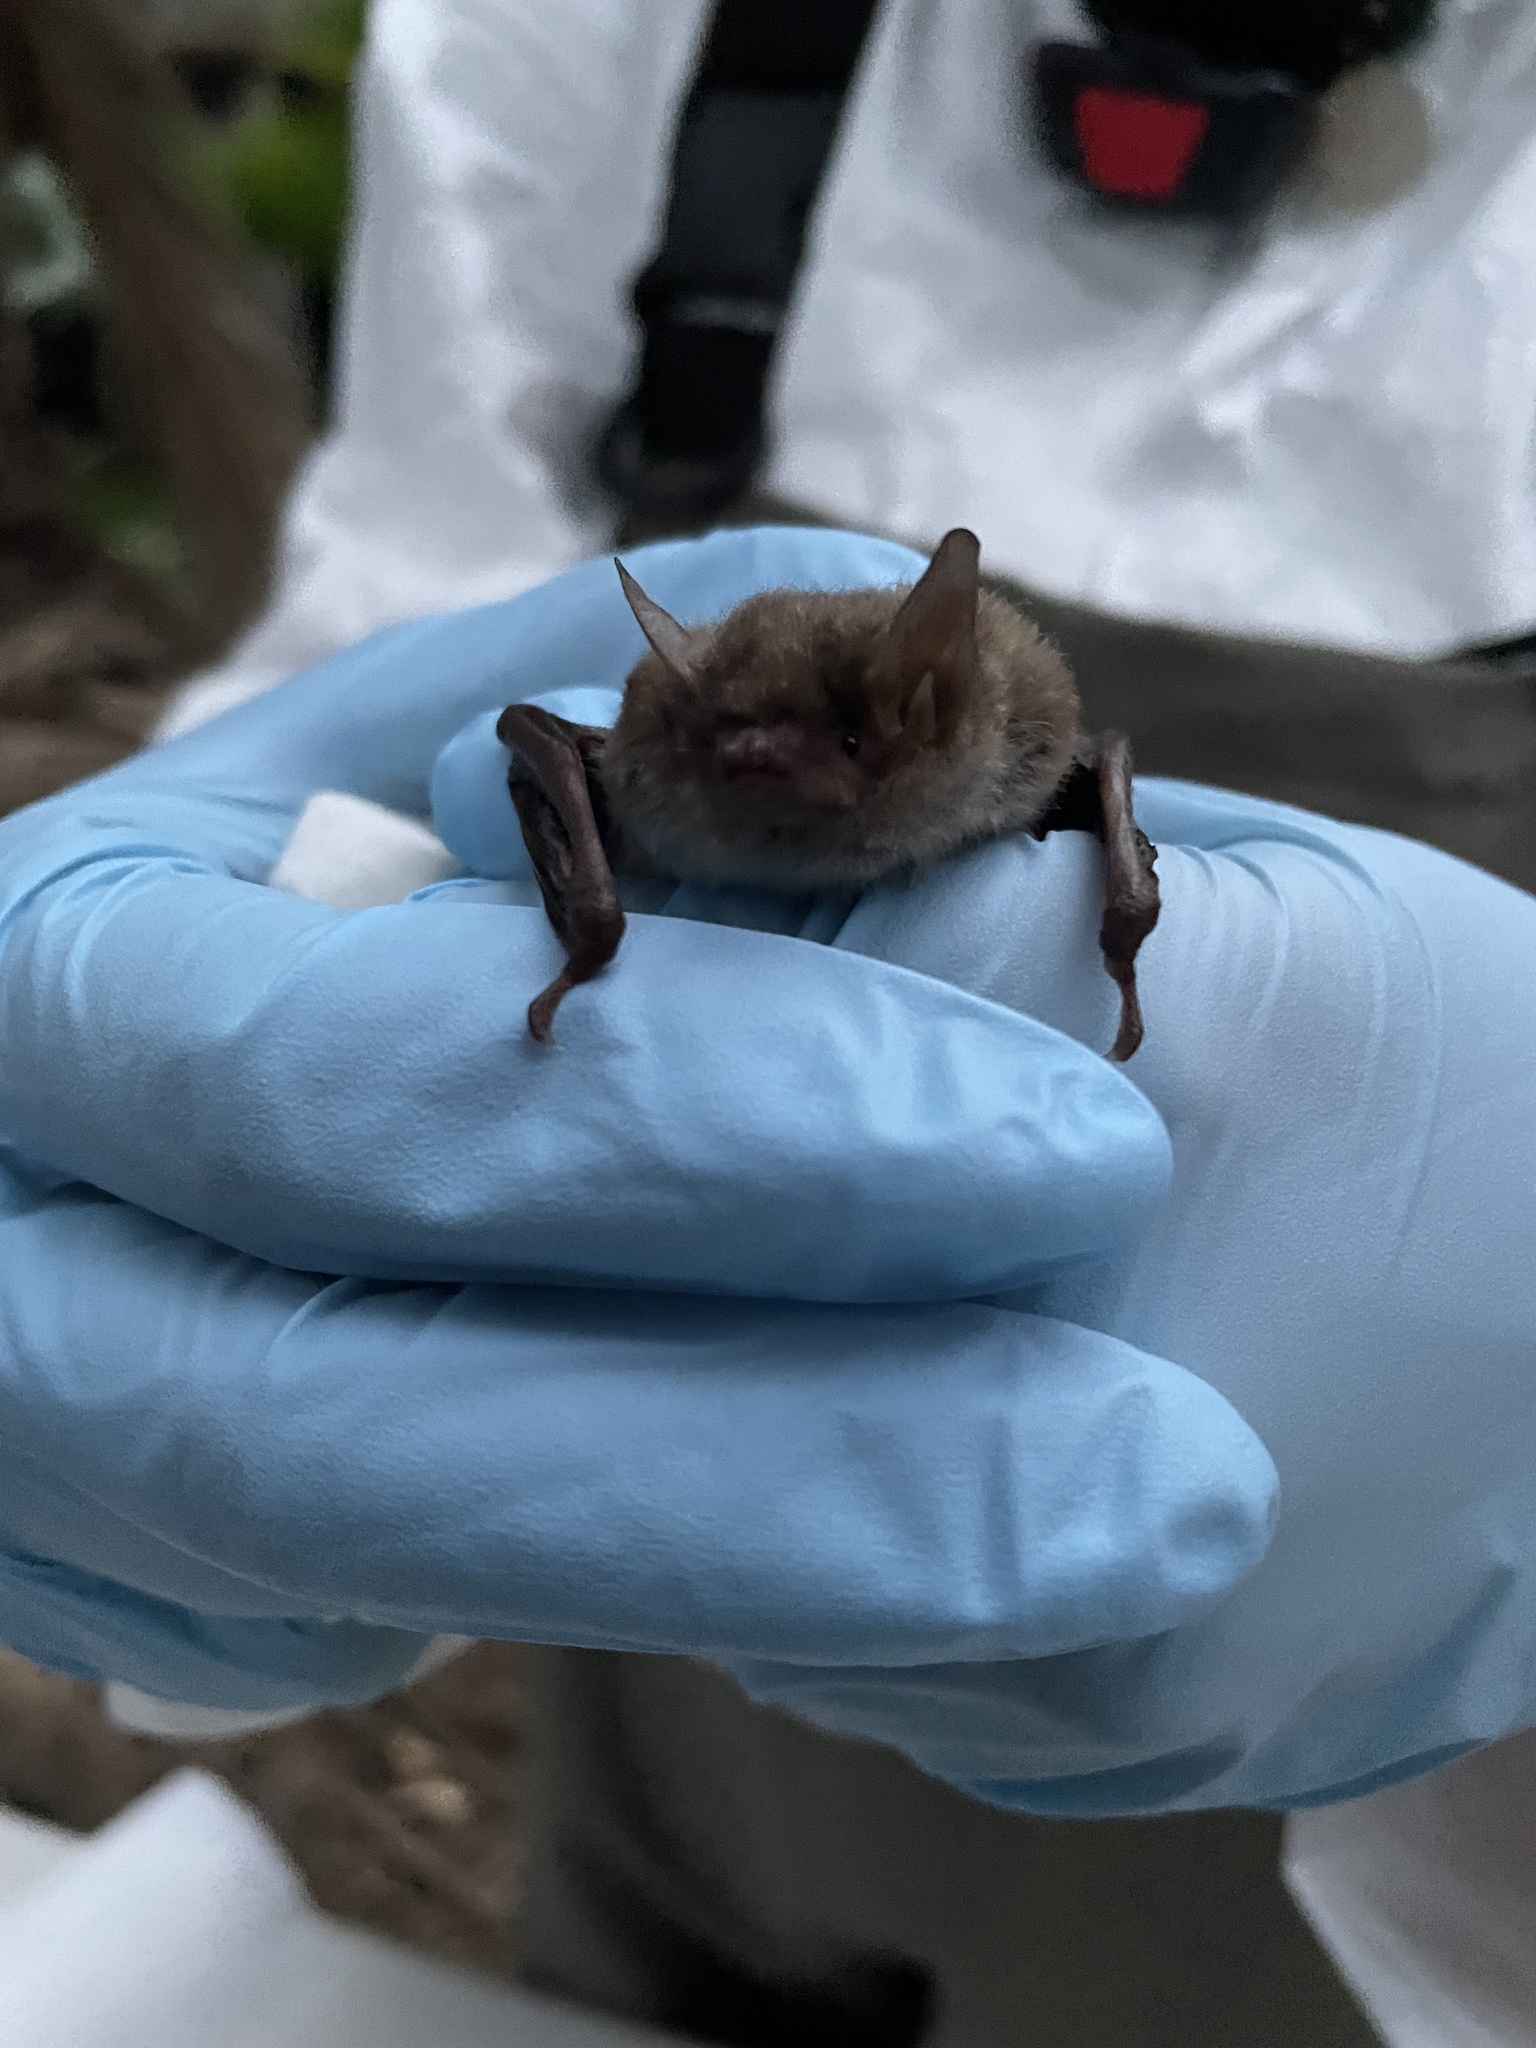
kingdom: Animalia
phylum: Chordata
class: Mammalia
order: Chiroptera
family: Vespertilionidae
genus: Myotis
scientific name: Myotis yumanensis
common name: Yuma myotis
